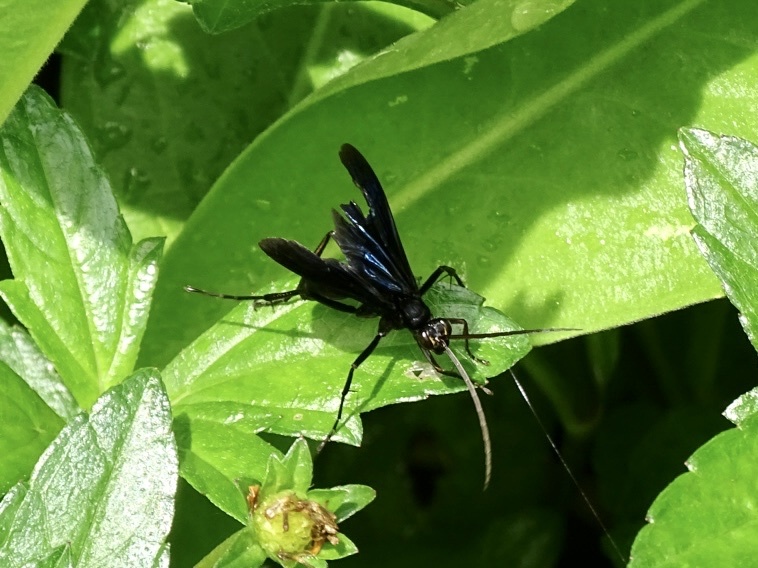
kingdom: Animalia
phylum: Arthropoda
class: Insecta
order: Hymenoptera
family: Pompilidae
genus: Cyphononyx
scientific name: Cyphononyx bipartitus
